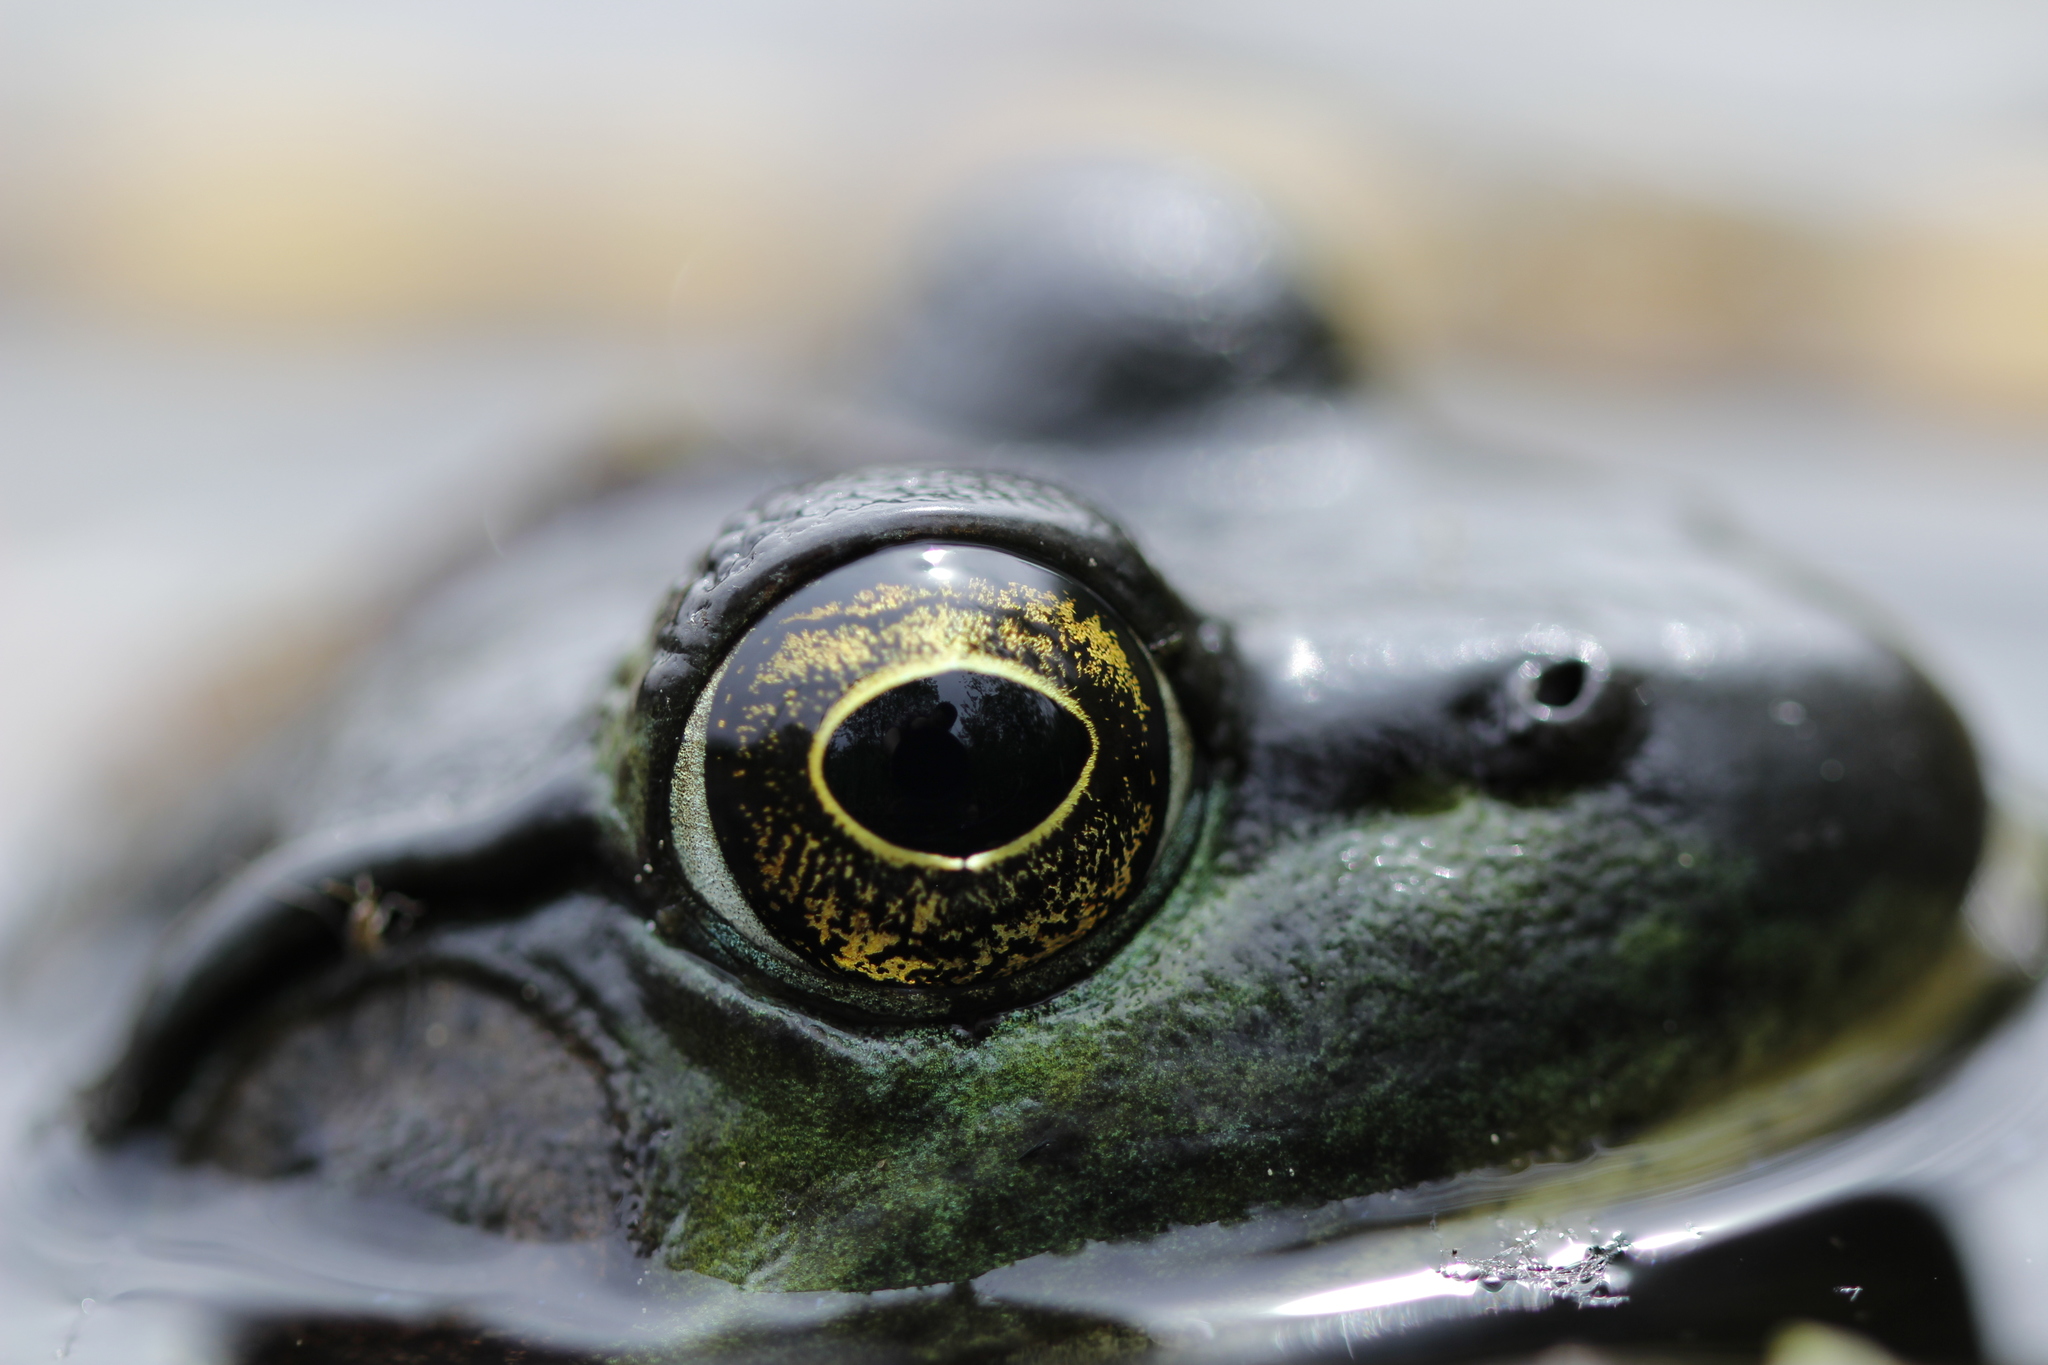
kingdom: Animalia
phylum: Chordata
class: Amphibia
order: Anura
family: Ranidae
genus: Lithobates
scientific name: Lithobates catesbeianus
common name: American bullfrog
